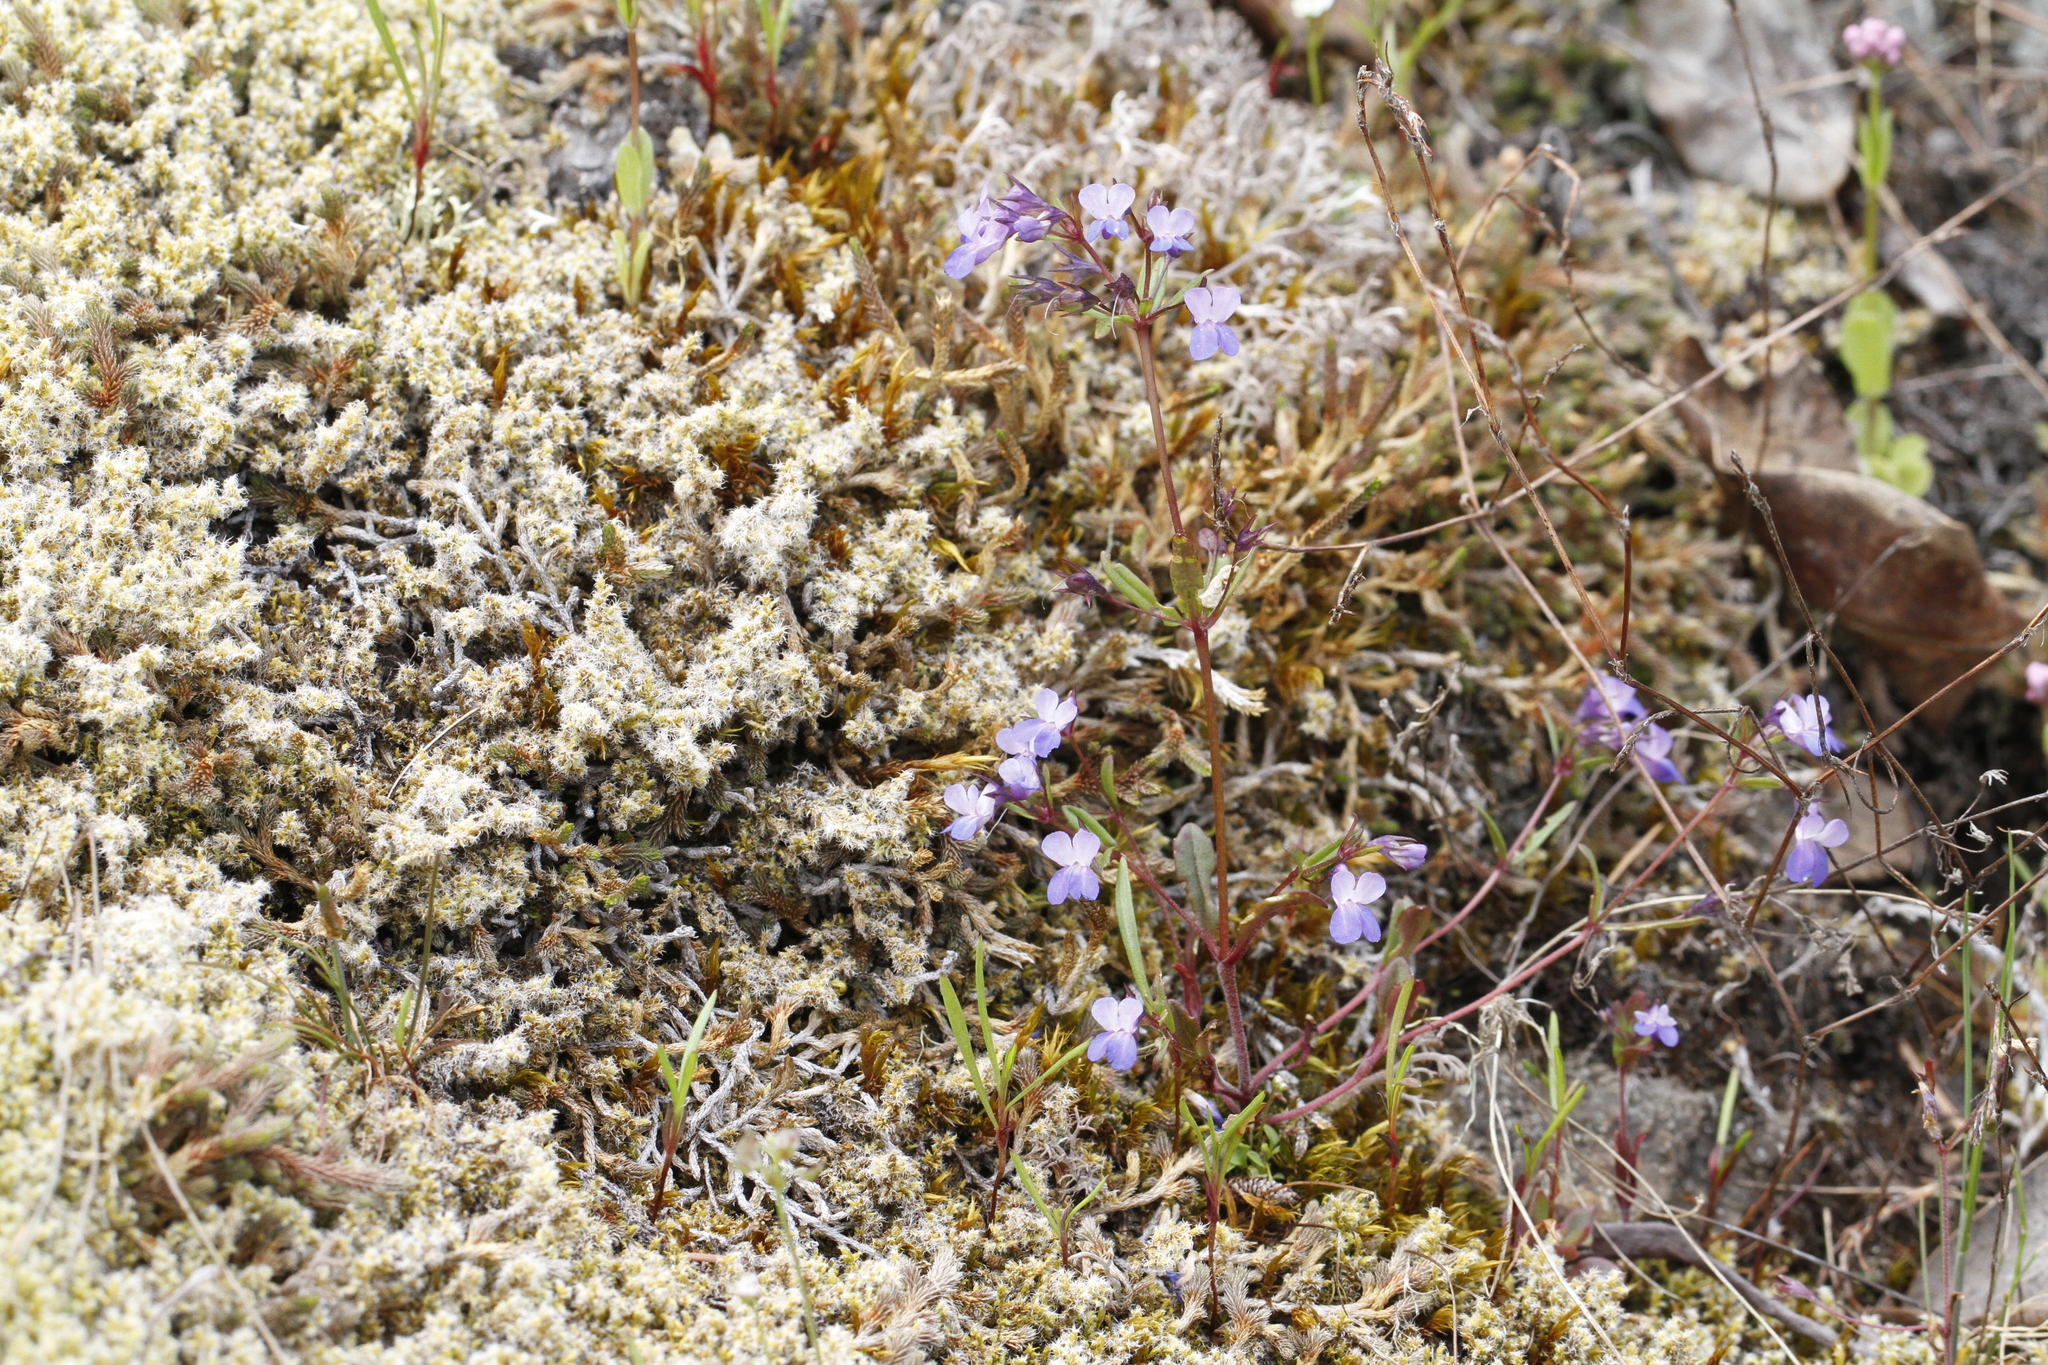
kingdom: Plantae
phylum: Tracheophyta
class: Magnoliopsida
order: Lamiales
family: Plantaginaceae
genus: Collinsia
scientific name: Collinsia grandiflora
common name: Large-flower blue-eyed-mary
